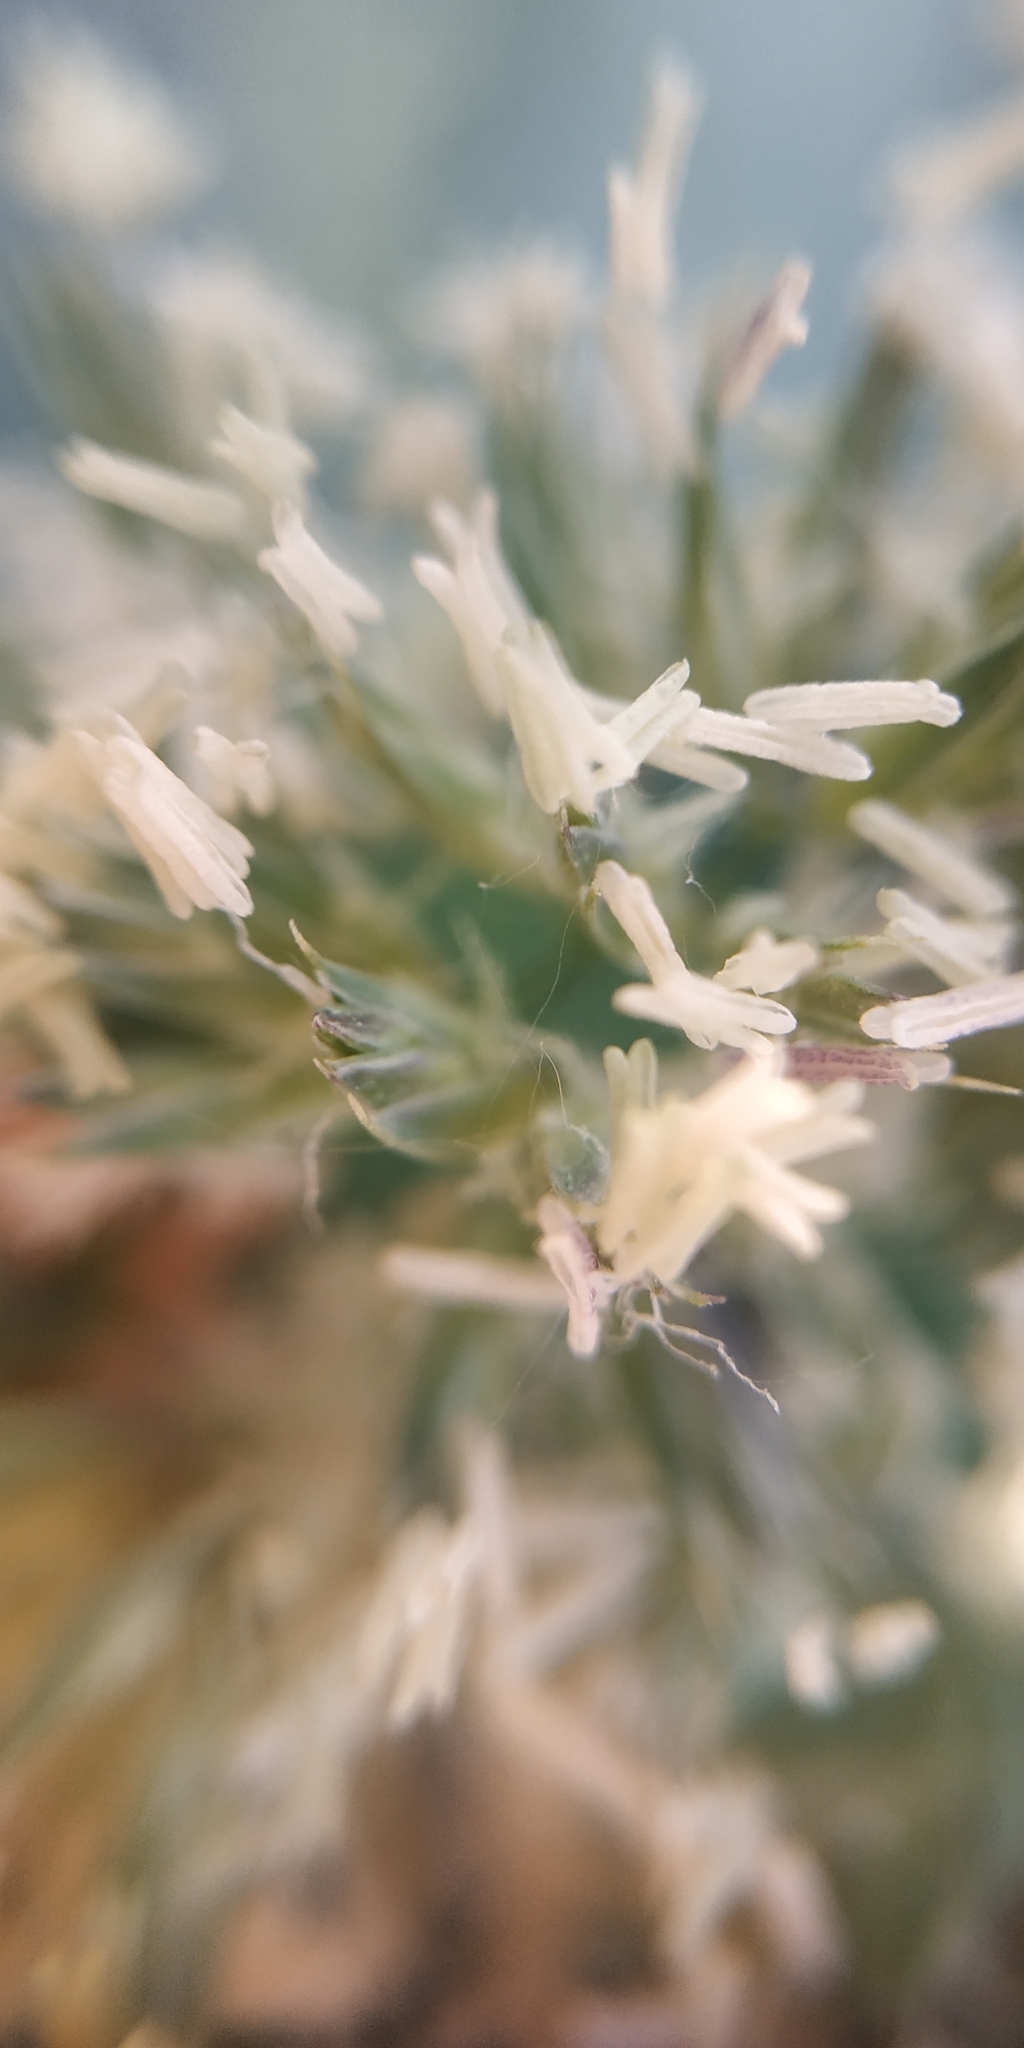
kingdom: Plantae
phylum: Tracheophyta
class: Liliopsida
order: Poales
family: Poaceae
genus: Dactylis
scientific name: Dactylis glomerata
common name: Orchardgrass
